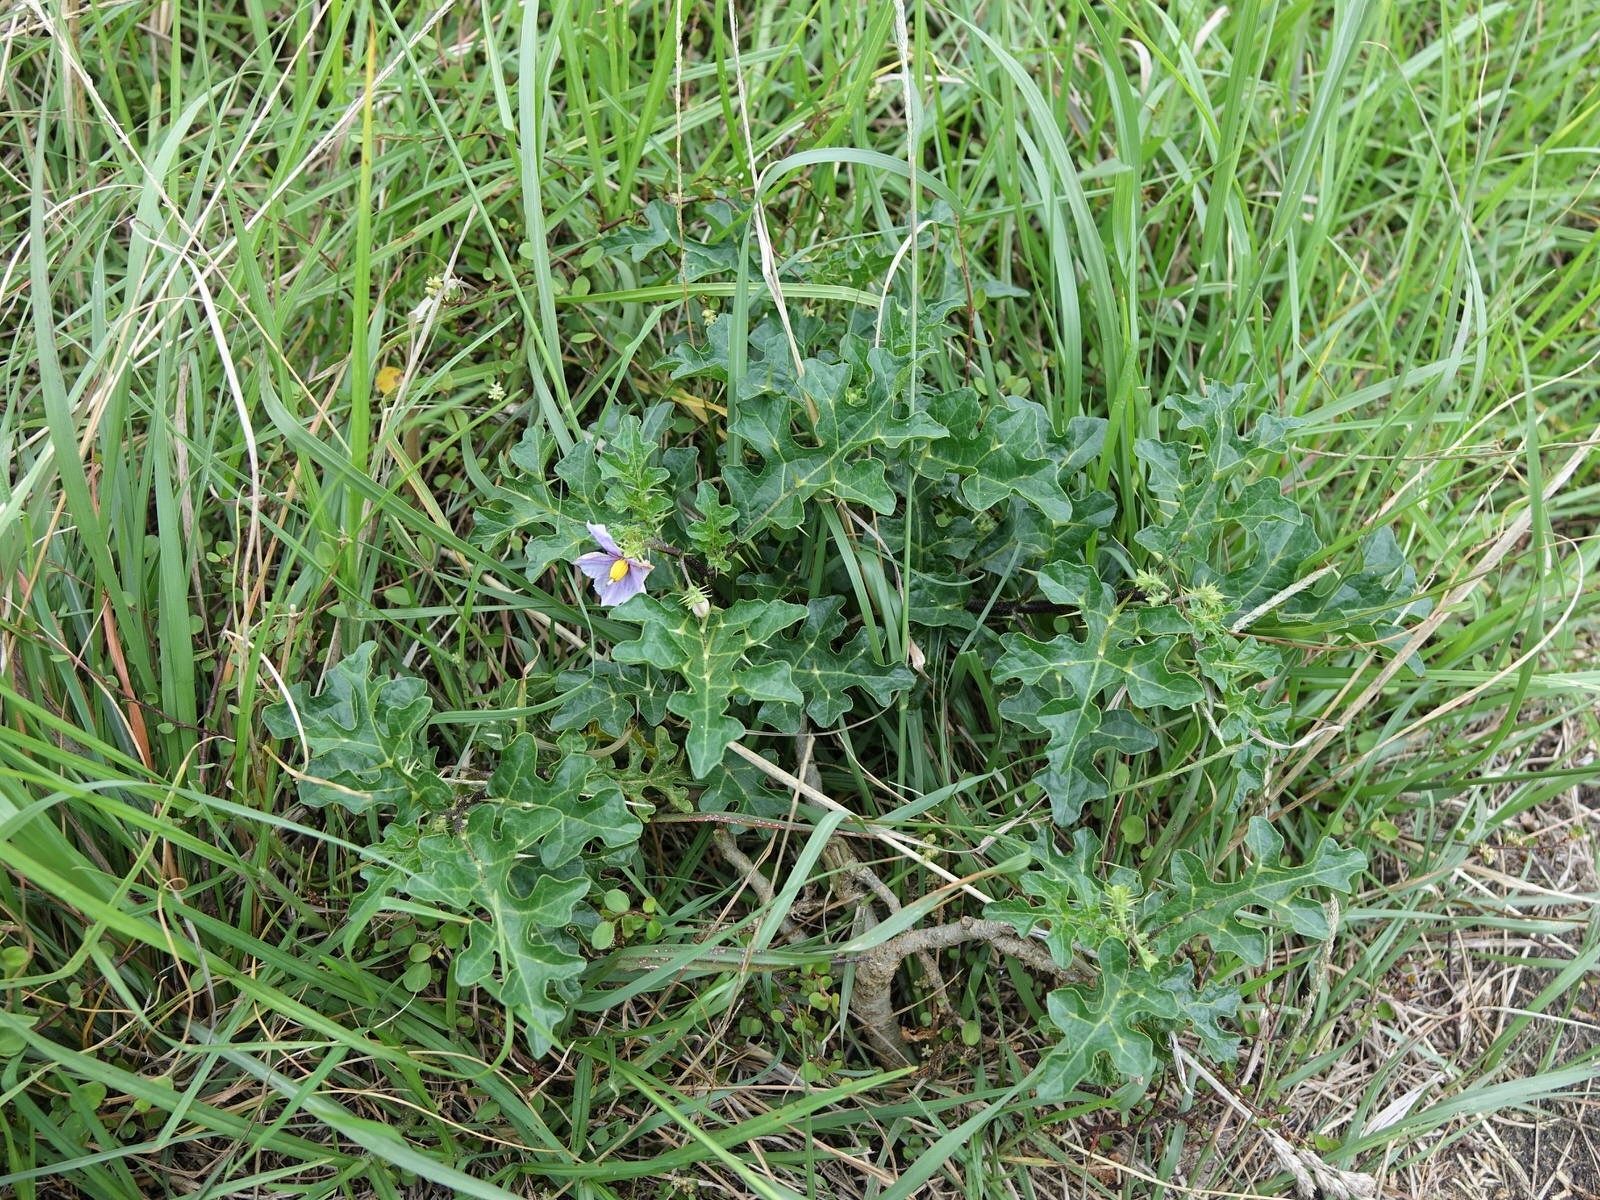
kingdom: Plantae
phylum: Tracheophyta
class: Magnoliopsida
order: Solanales
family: Solanaceae
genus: Solanum
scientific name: Solanum linnaeanum
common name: Nightshade
